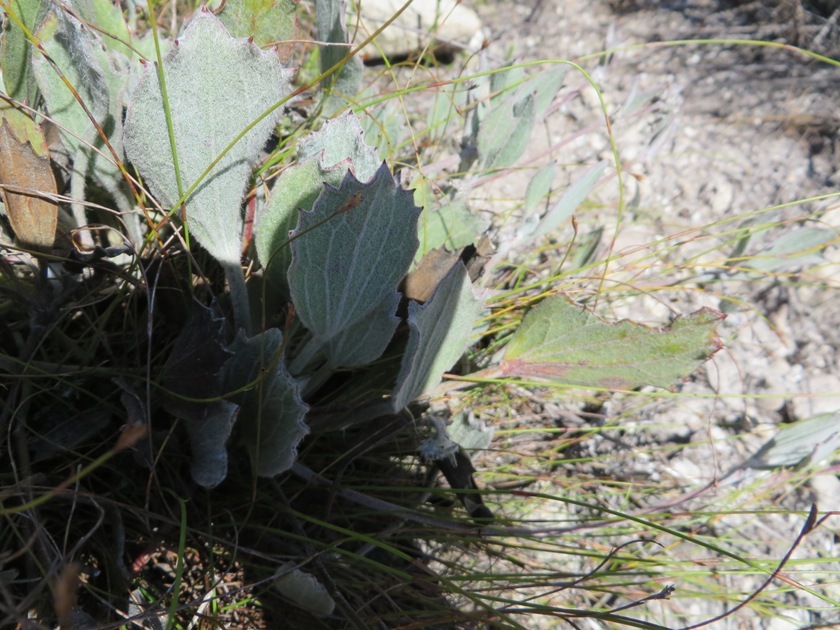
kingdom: Plantae
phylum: Tracheophyta
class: Magnoliopsida
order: Apiales
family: Apiaceae
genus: Centella
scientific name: Centella difformis
